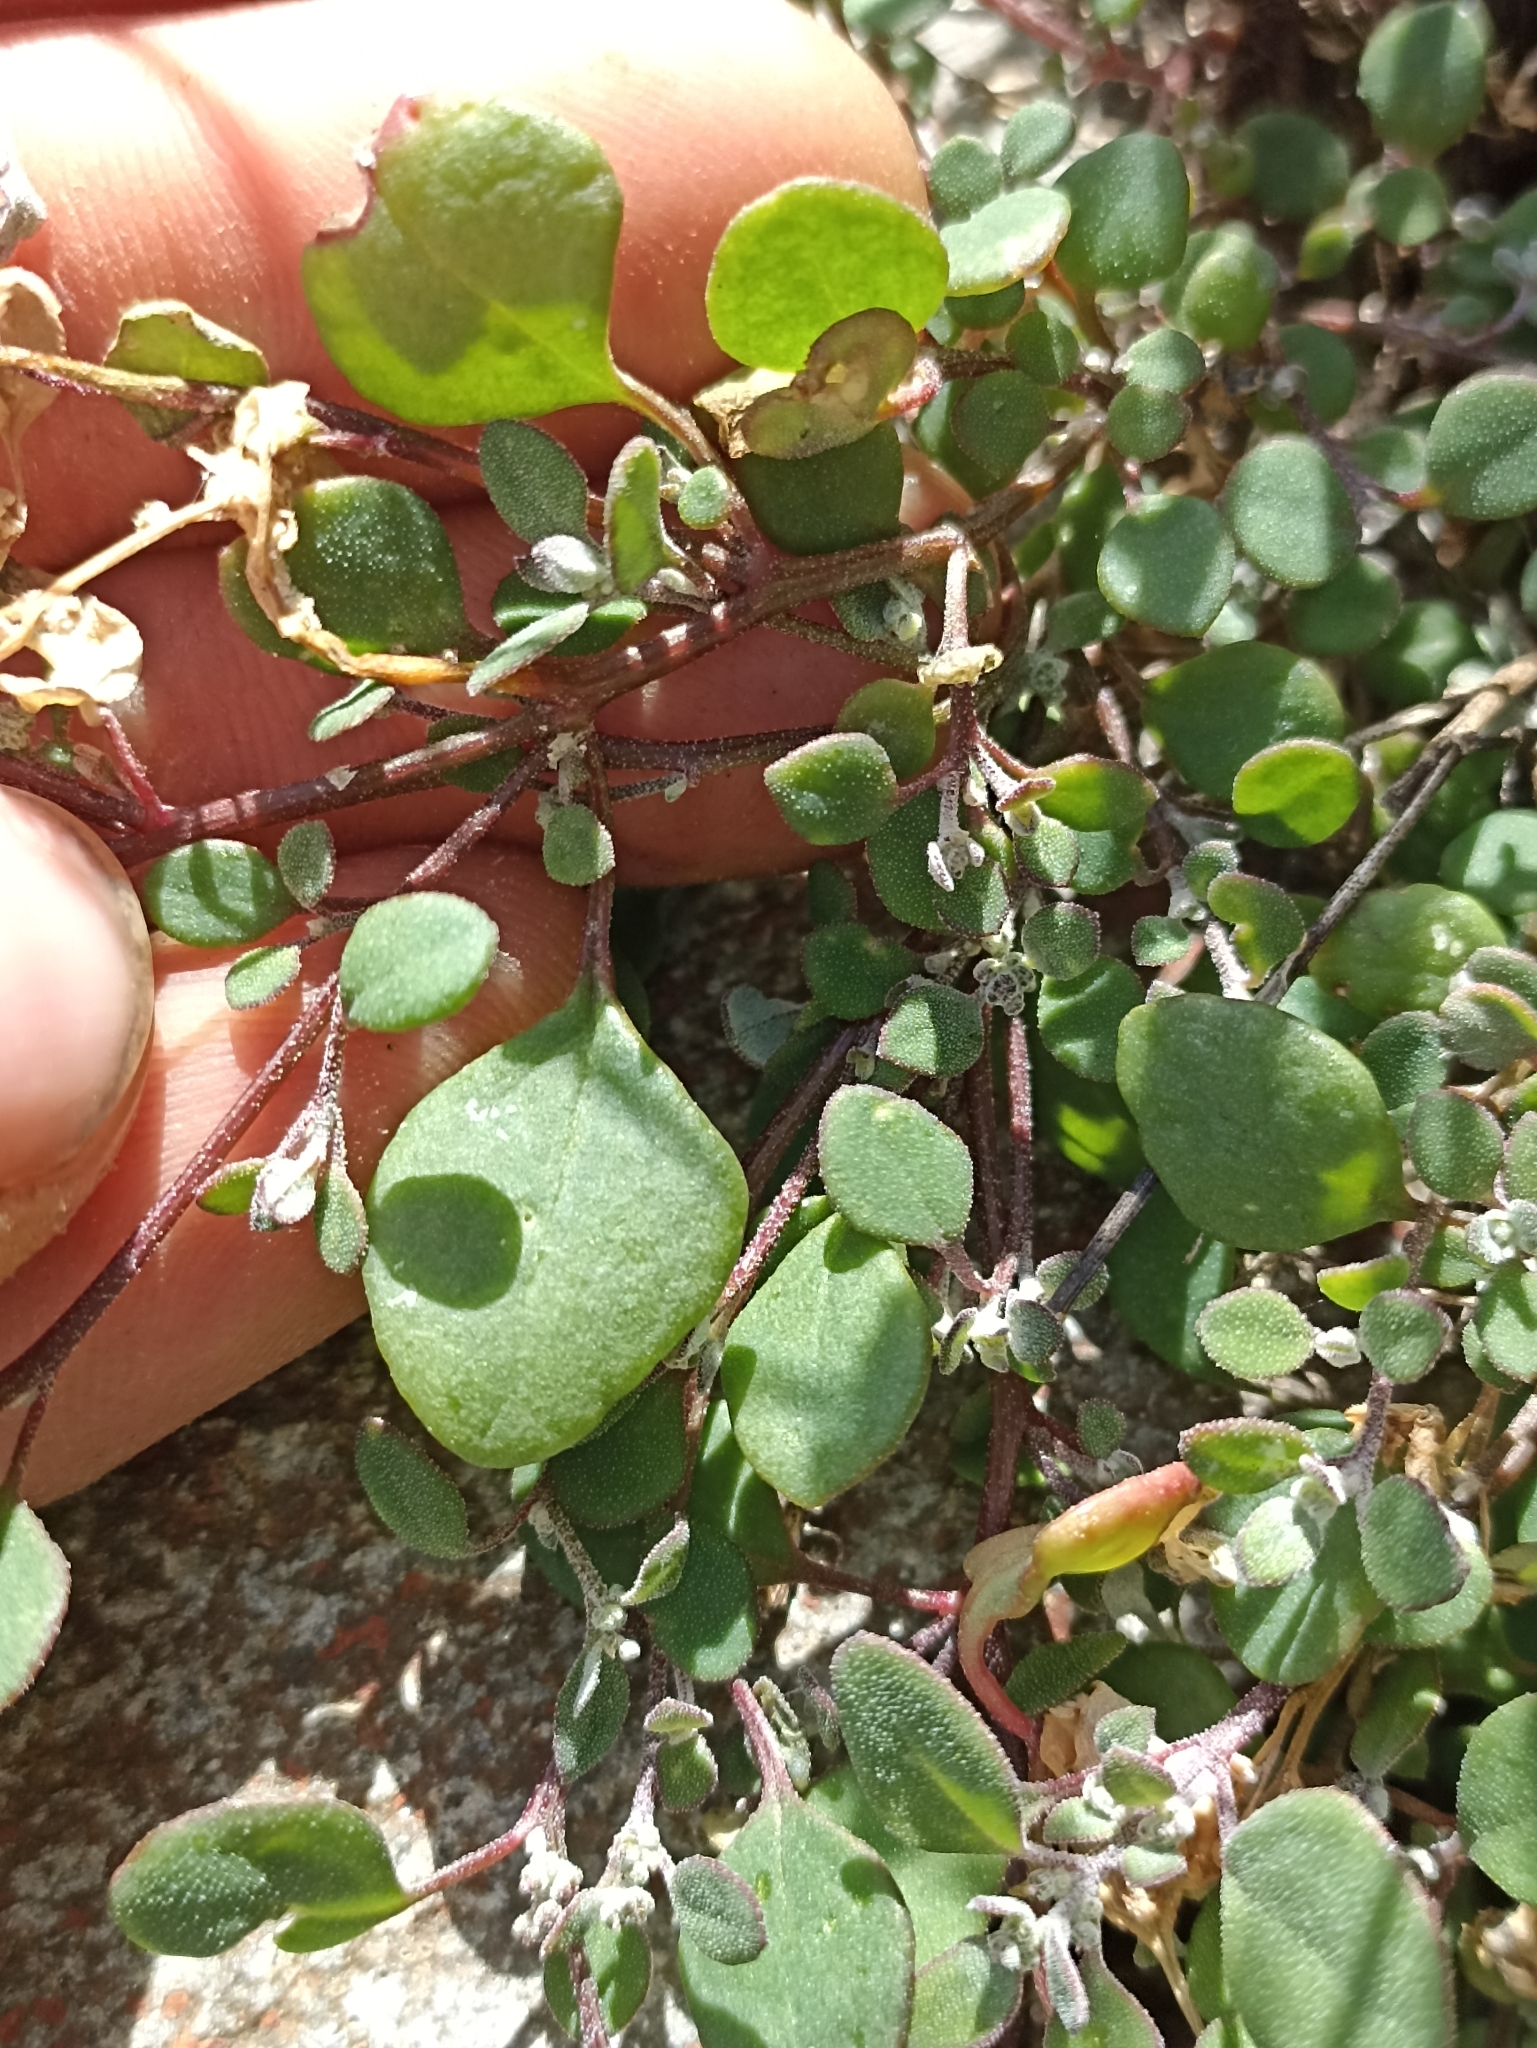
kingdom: Plantae
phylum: Tracheophyta
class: Magnoliopsida
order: Caryophyllales
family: Amaranthaceae
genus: Chenopodium
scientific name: Chenopodium trigonon
